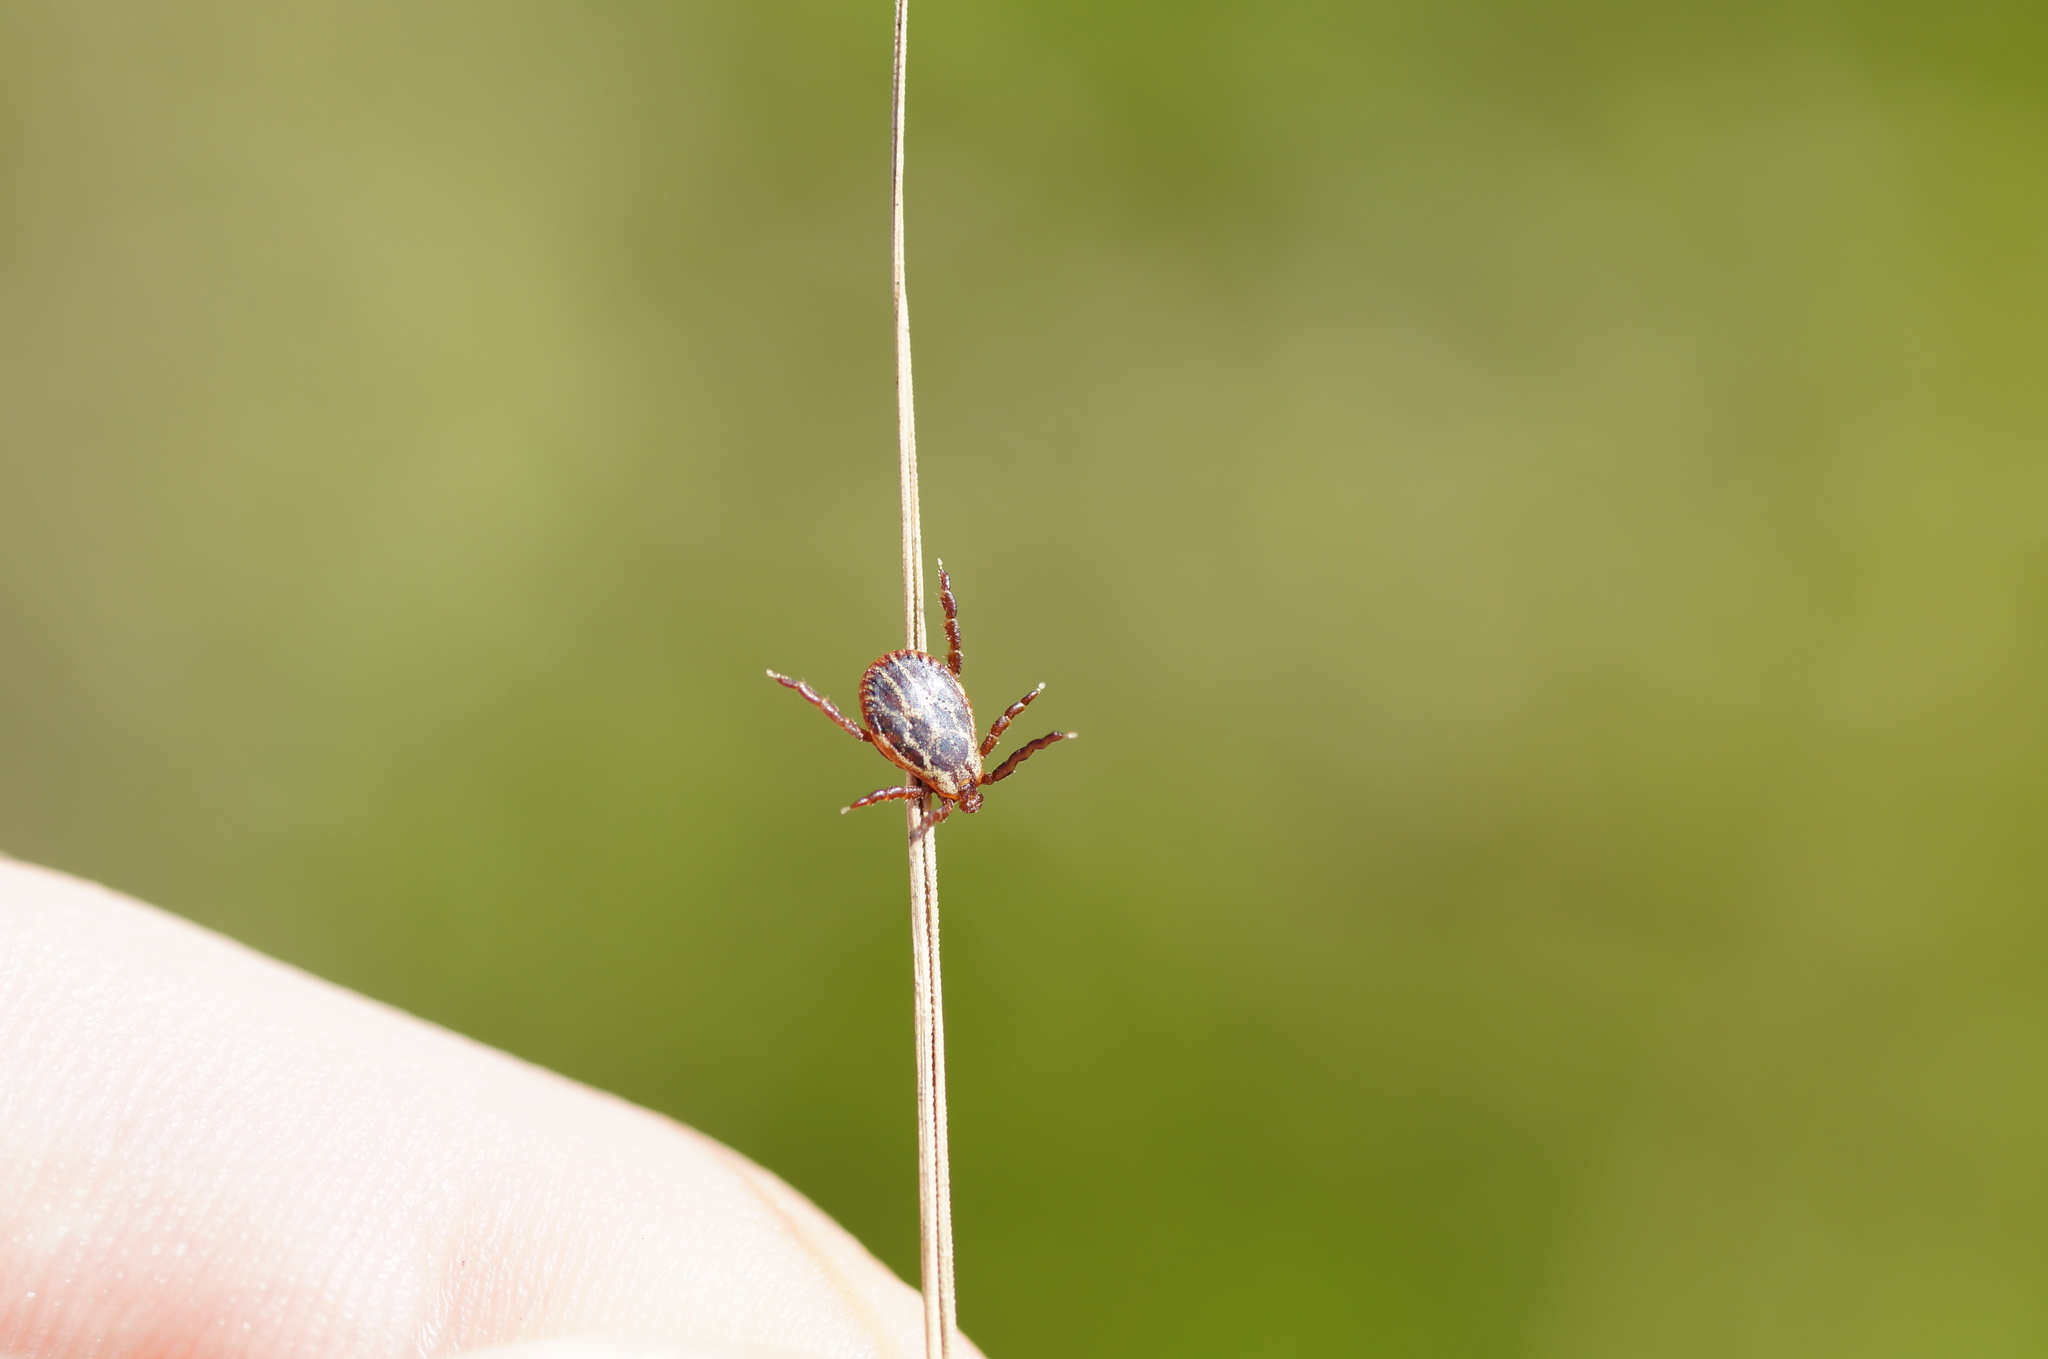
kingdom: Animalia
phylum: Arthropoda
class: Arachnida
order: Ixodida
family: Ixodidae
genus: Dermacentor
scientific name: Dermacentor reticulatus
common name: Ornate cow tick
